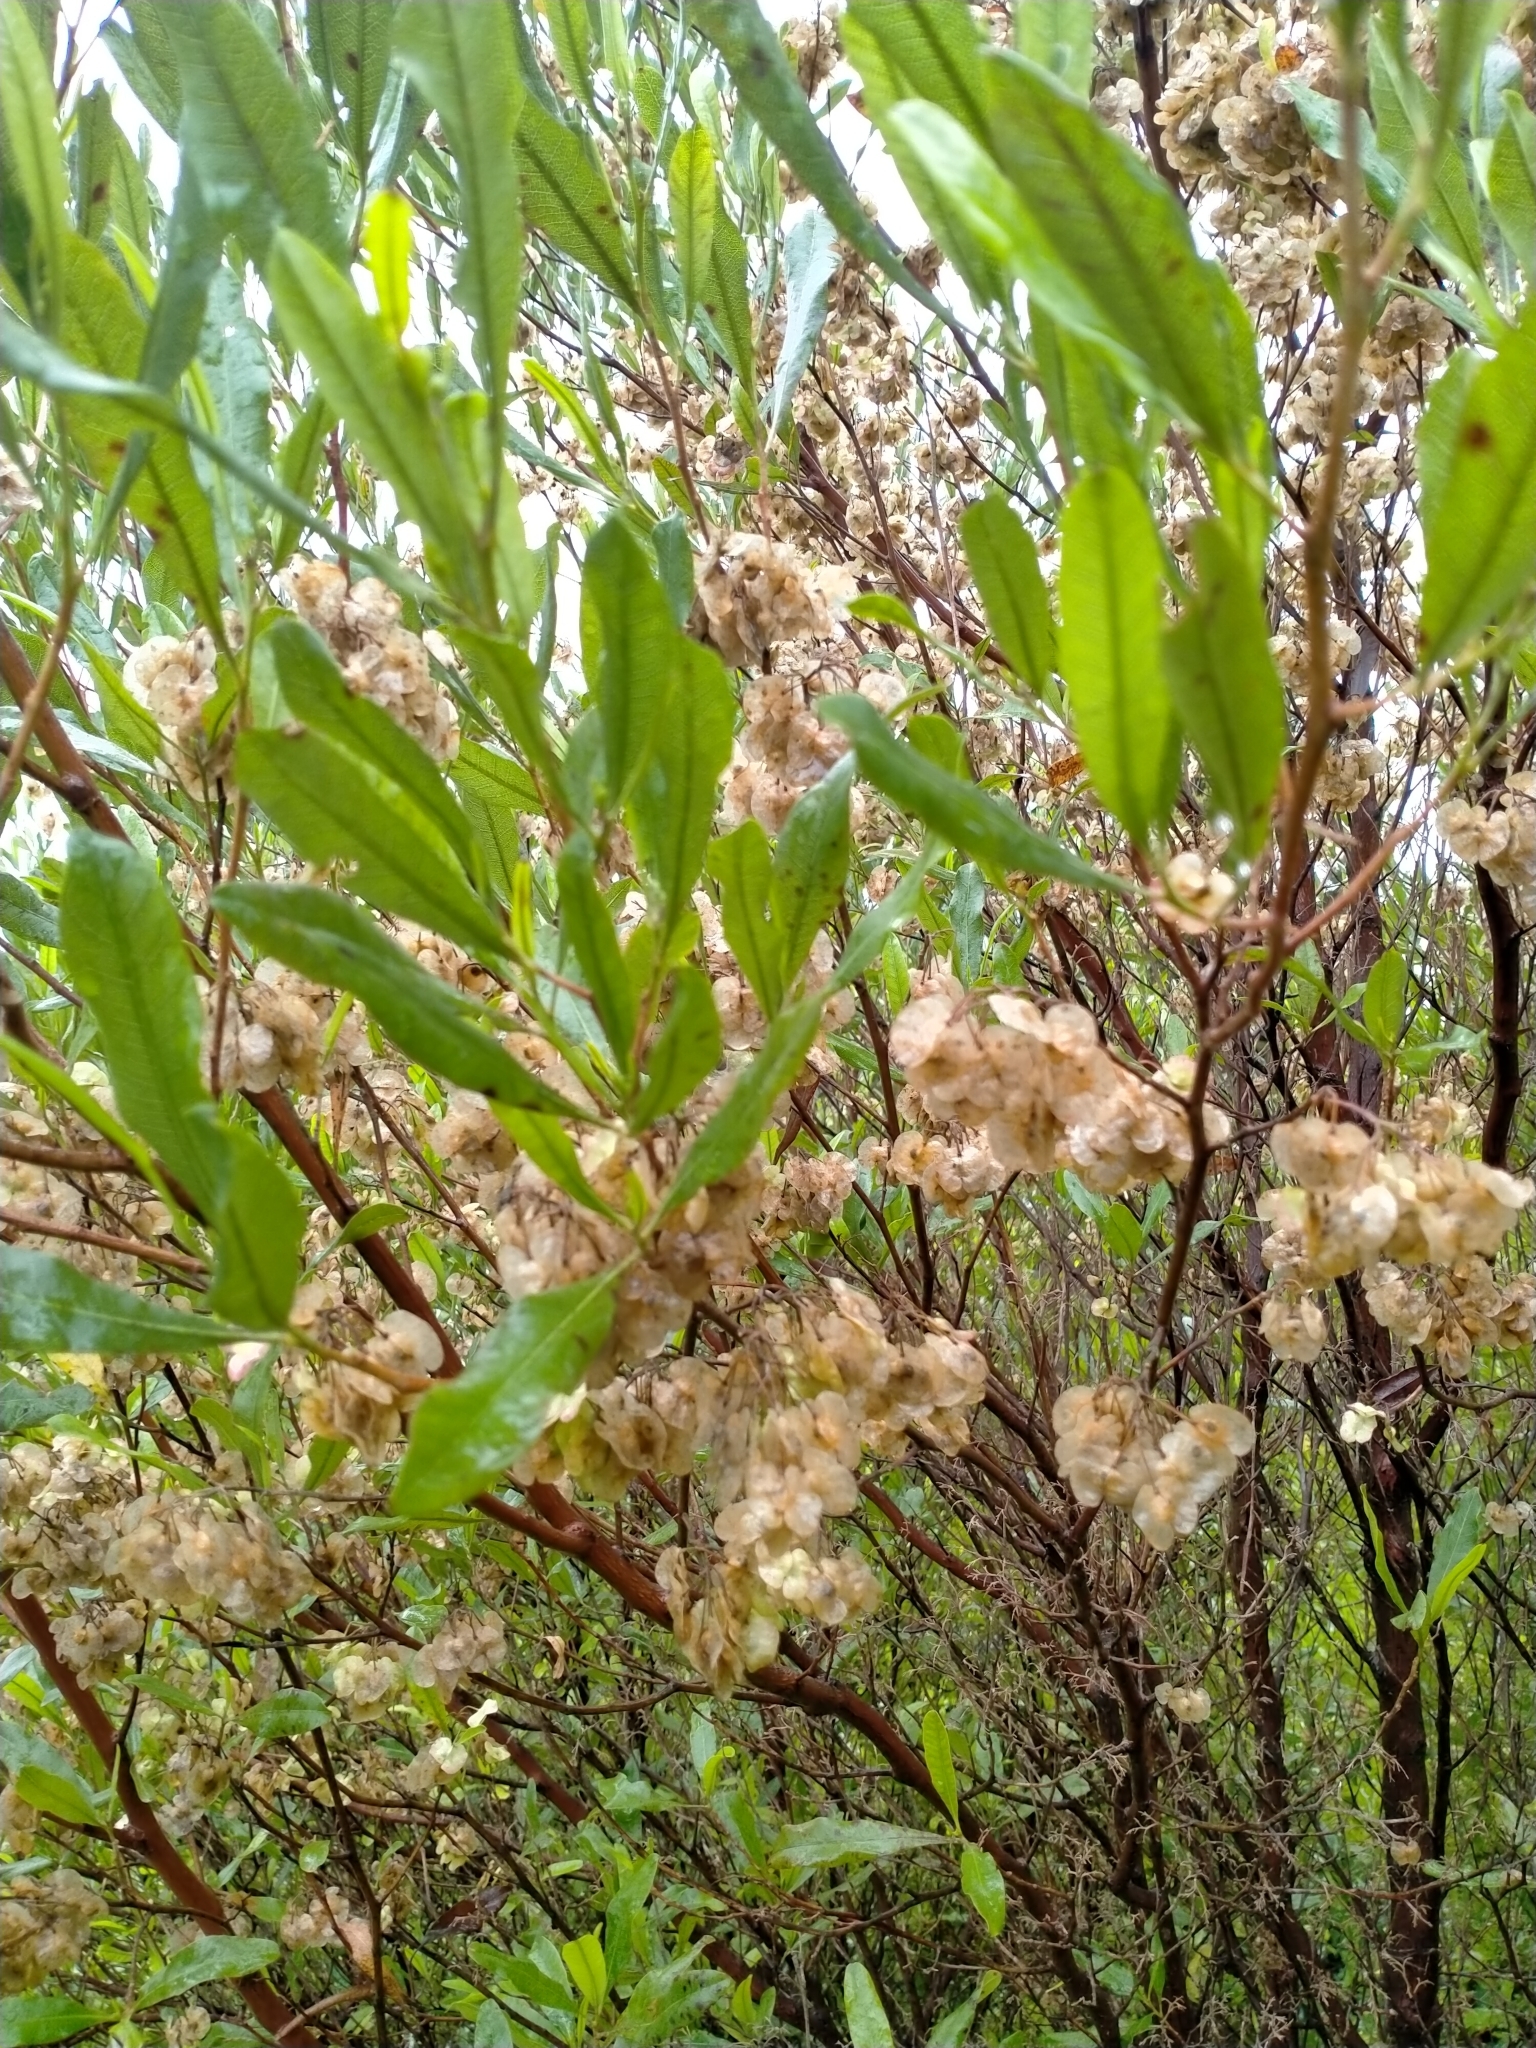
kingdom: Plantae
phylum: Tracheophyta
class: Magnoliopsida
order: Sapindales
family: Sapindaceae
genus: Dodonaea
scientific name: Dodonaea viscosa
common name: Hopbush
